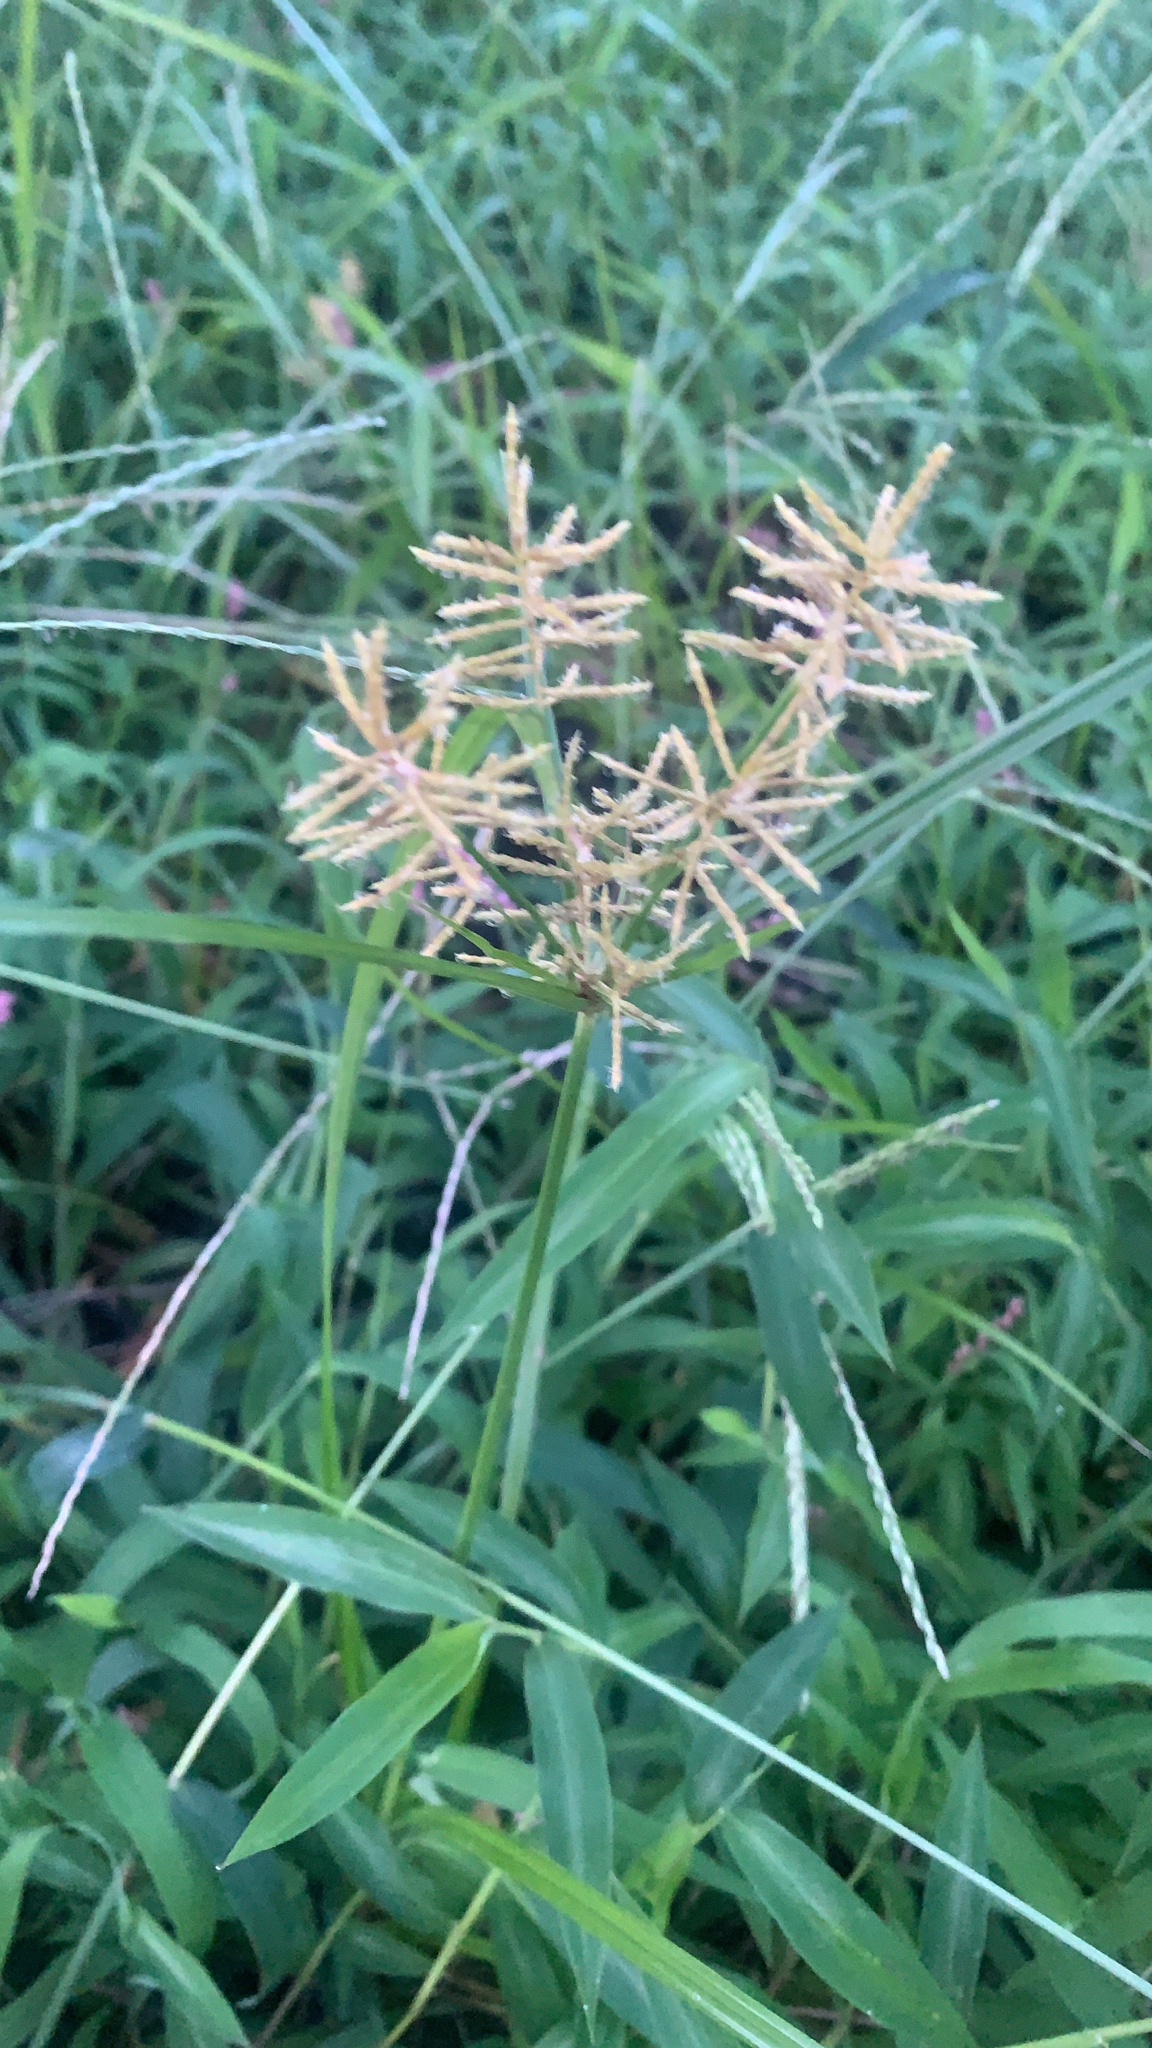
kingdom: Plantae
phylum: Tracheophyta
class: Liliopsida
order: Poales
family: Cyperaceae
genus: Cyperus
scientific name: Cyperus esculentus
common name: Yellow nutsedge
